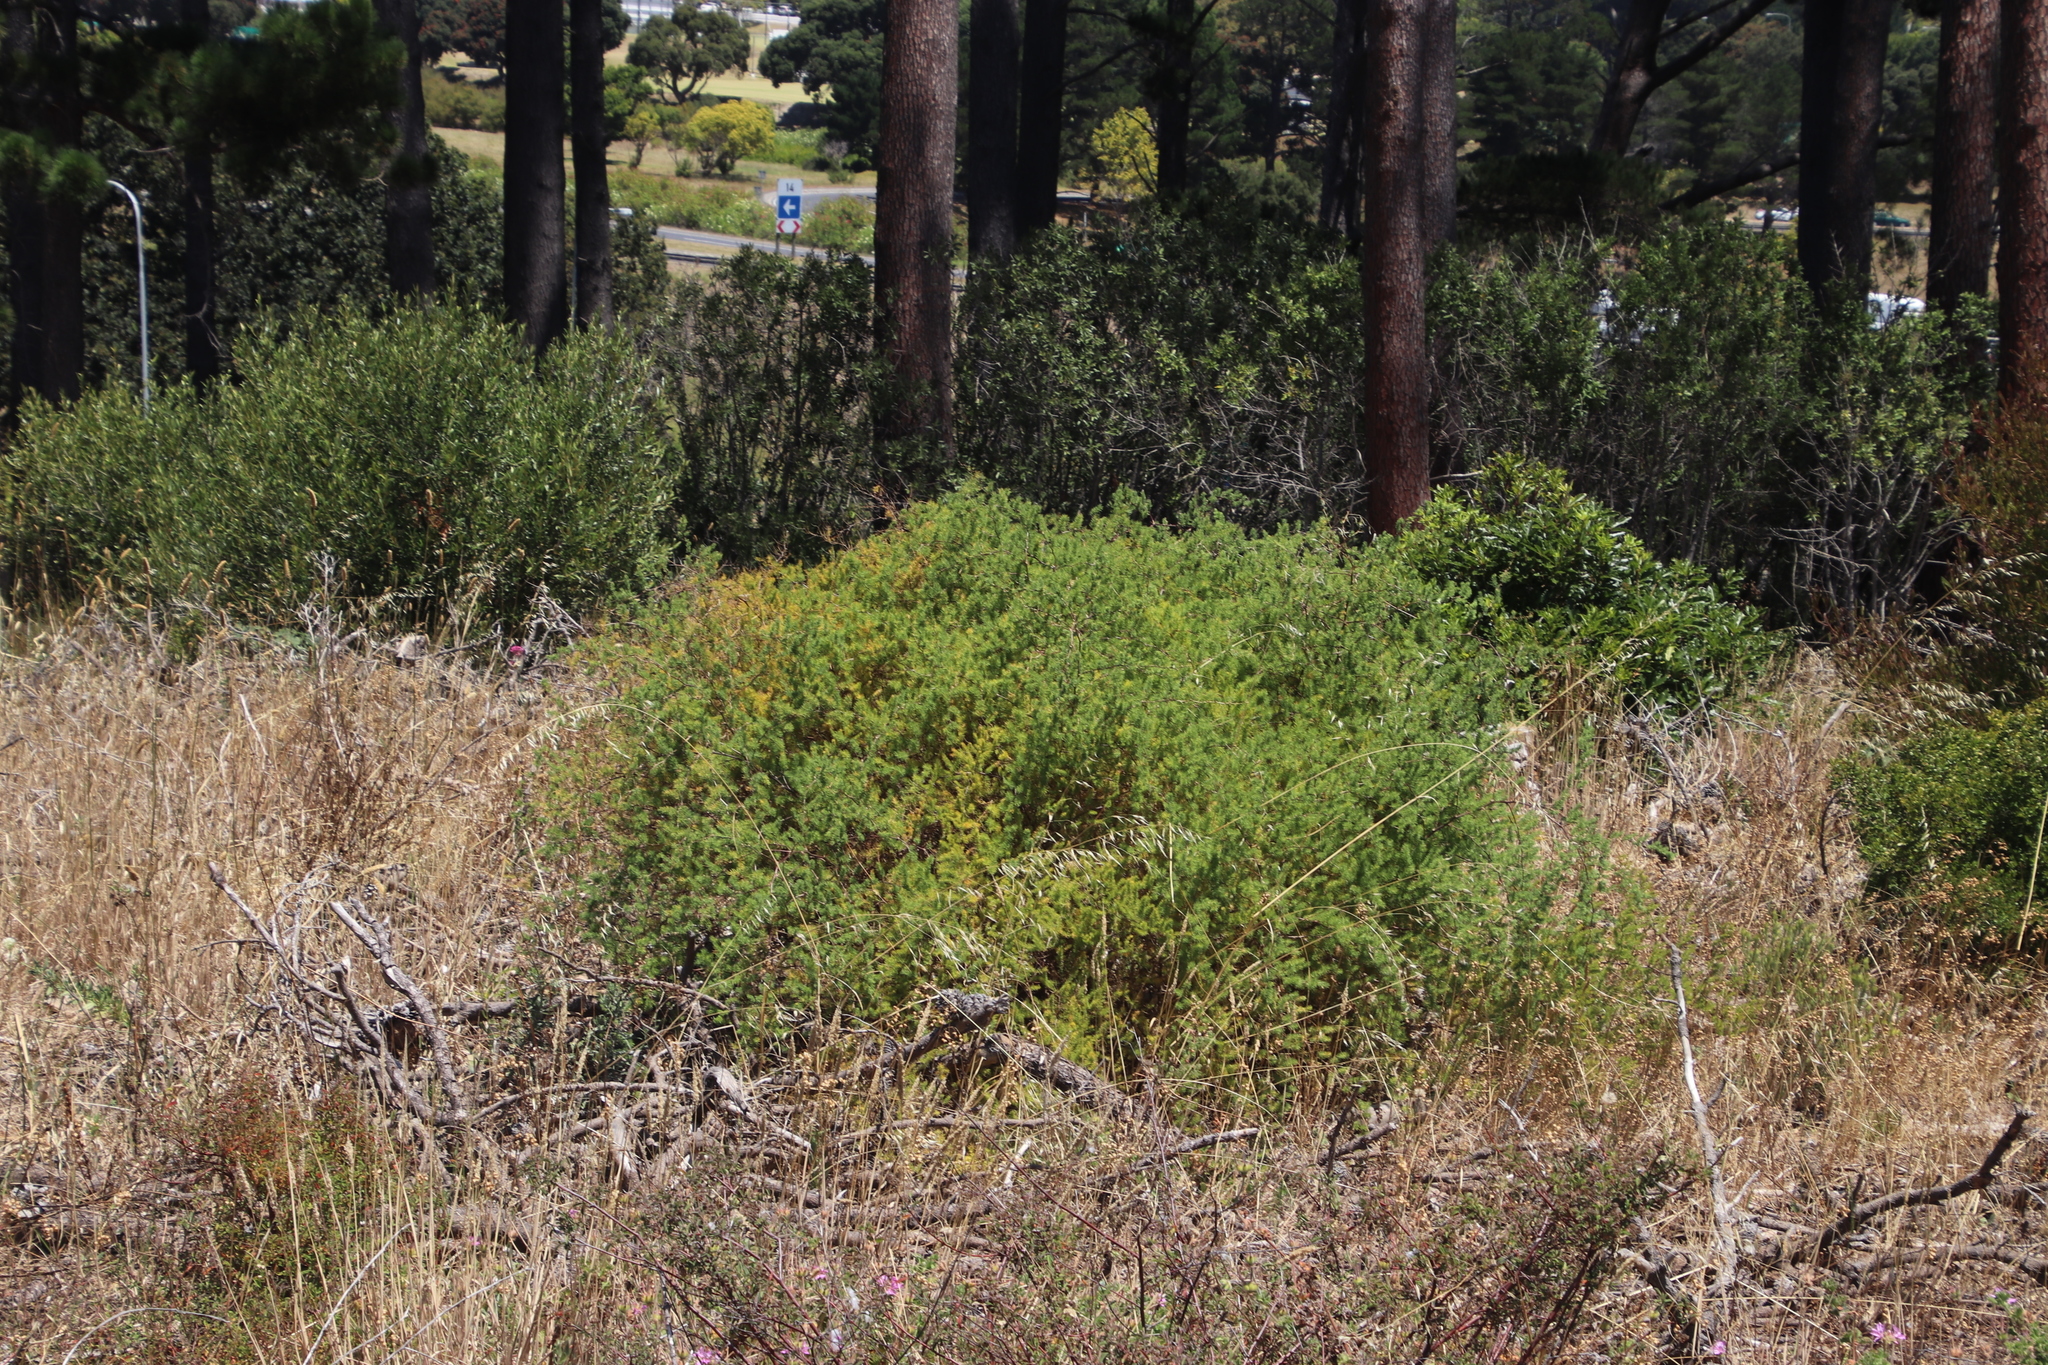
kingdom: Plantae
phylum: Tracheophyta
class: Liliopsida
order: Asparagales
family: Asparagaceae
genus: Asparagus
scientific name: Asparagus rubicundus
